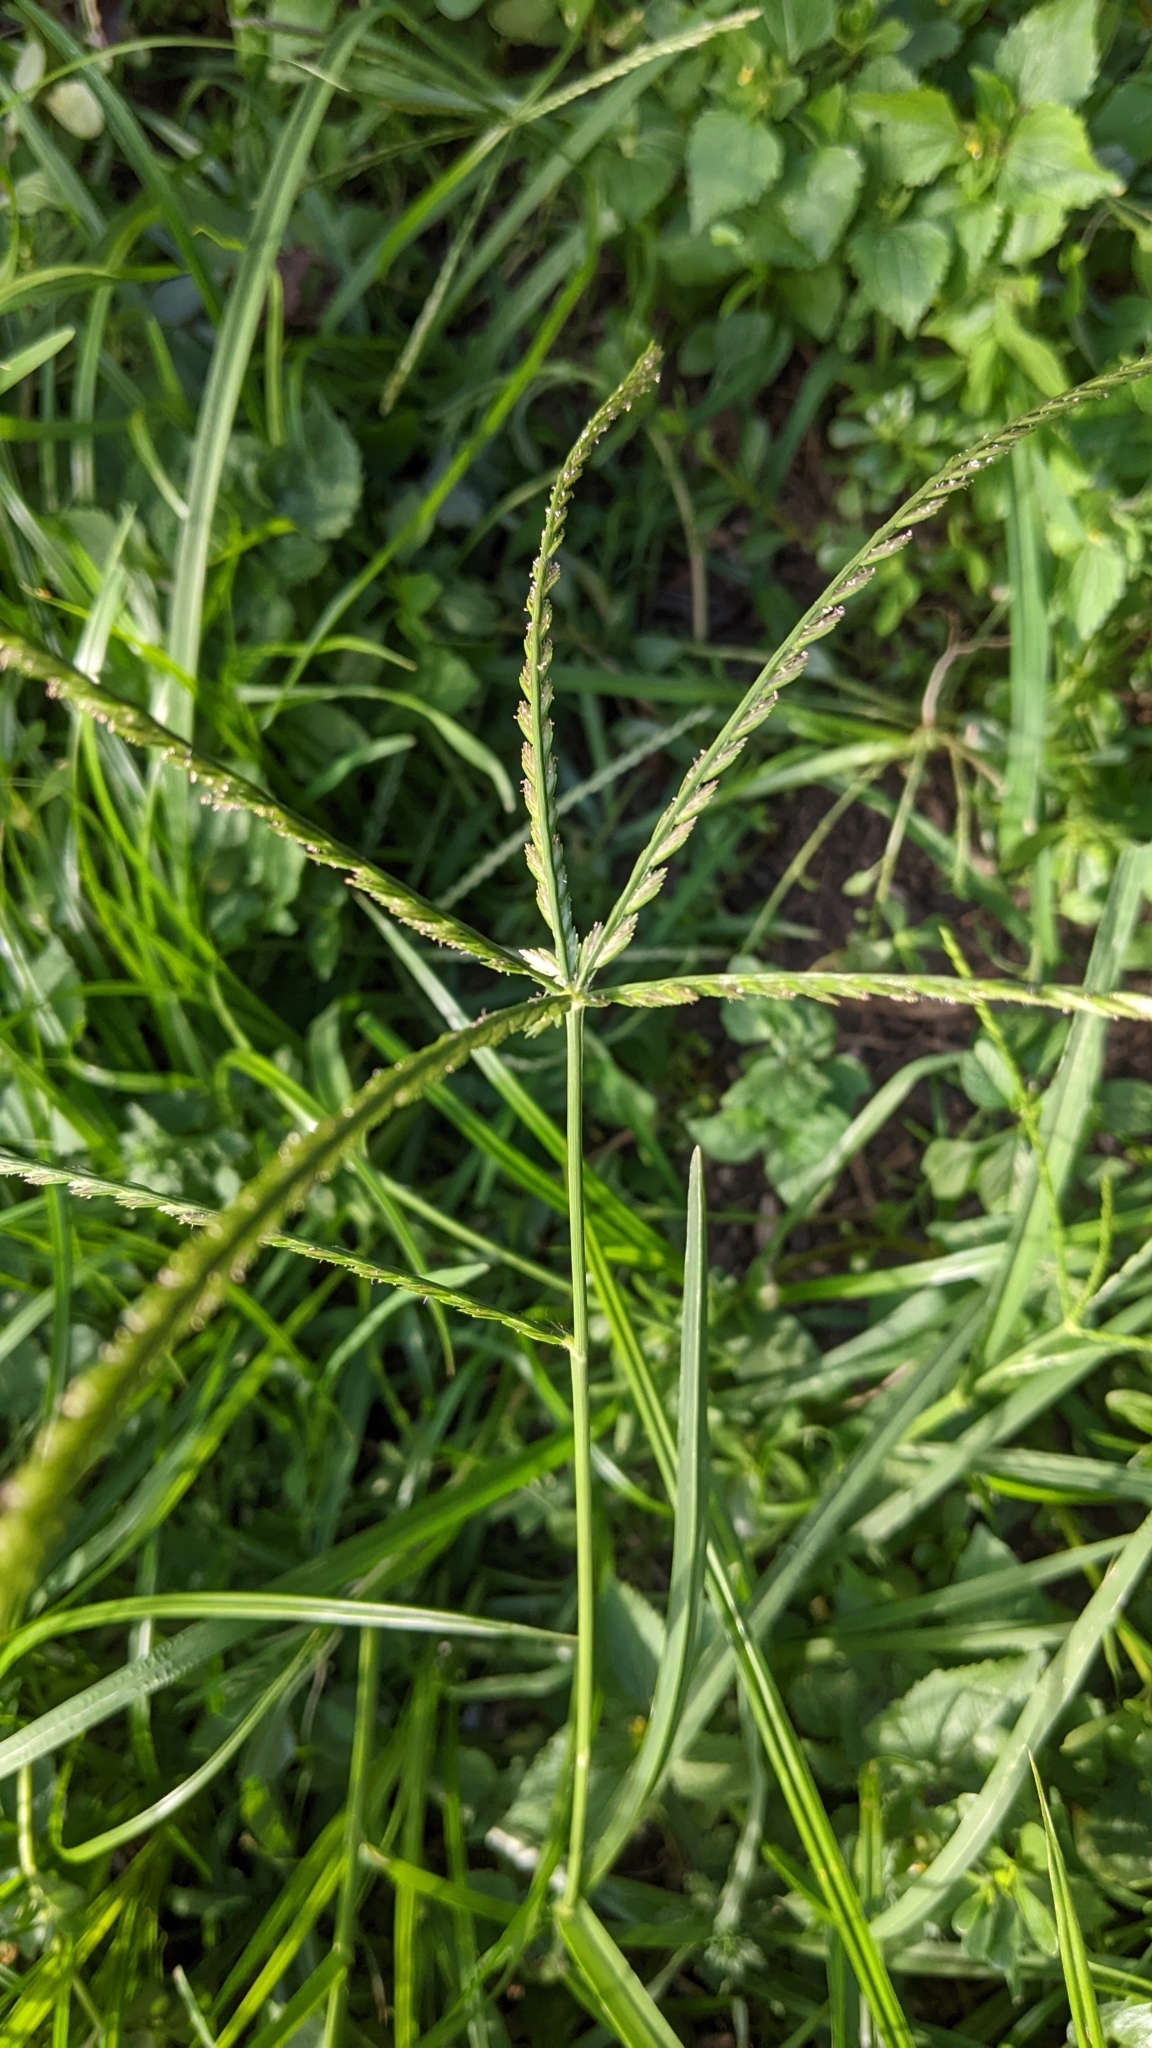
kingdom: Plantae
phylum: Tracheophyta
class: Liliopsida
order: Poales
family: Poaceae
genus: Eleusine
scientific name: Eleusine indica
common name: Yard-grass
